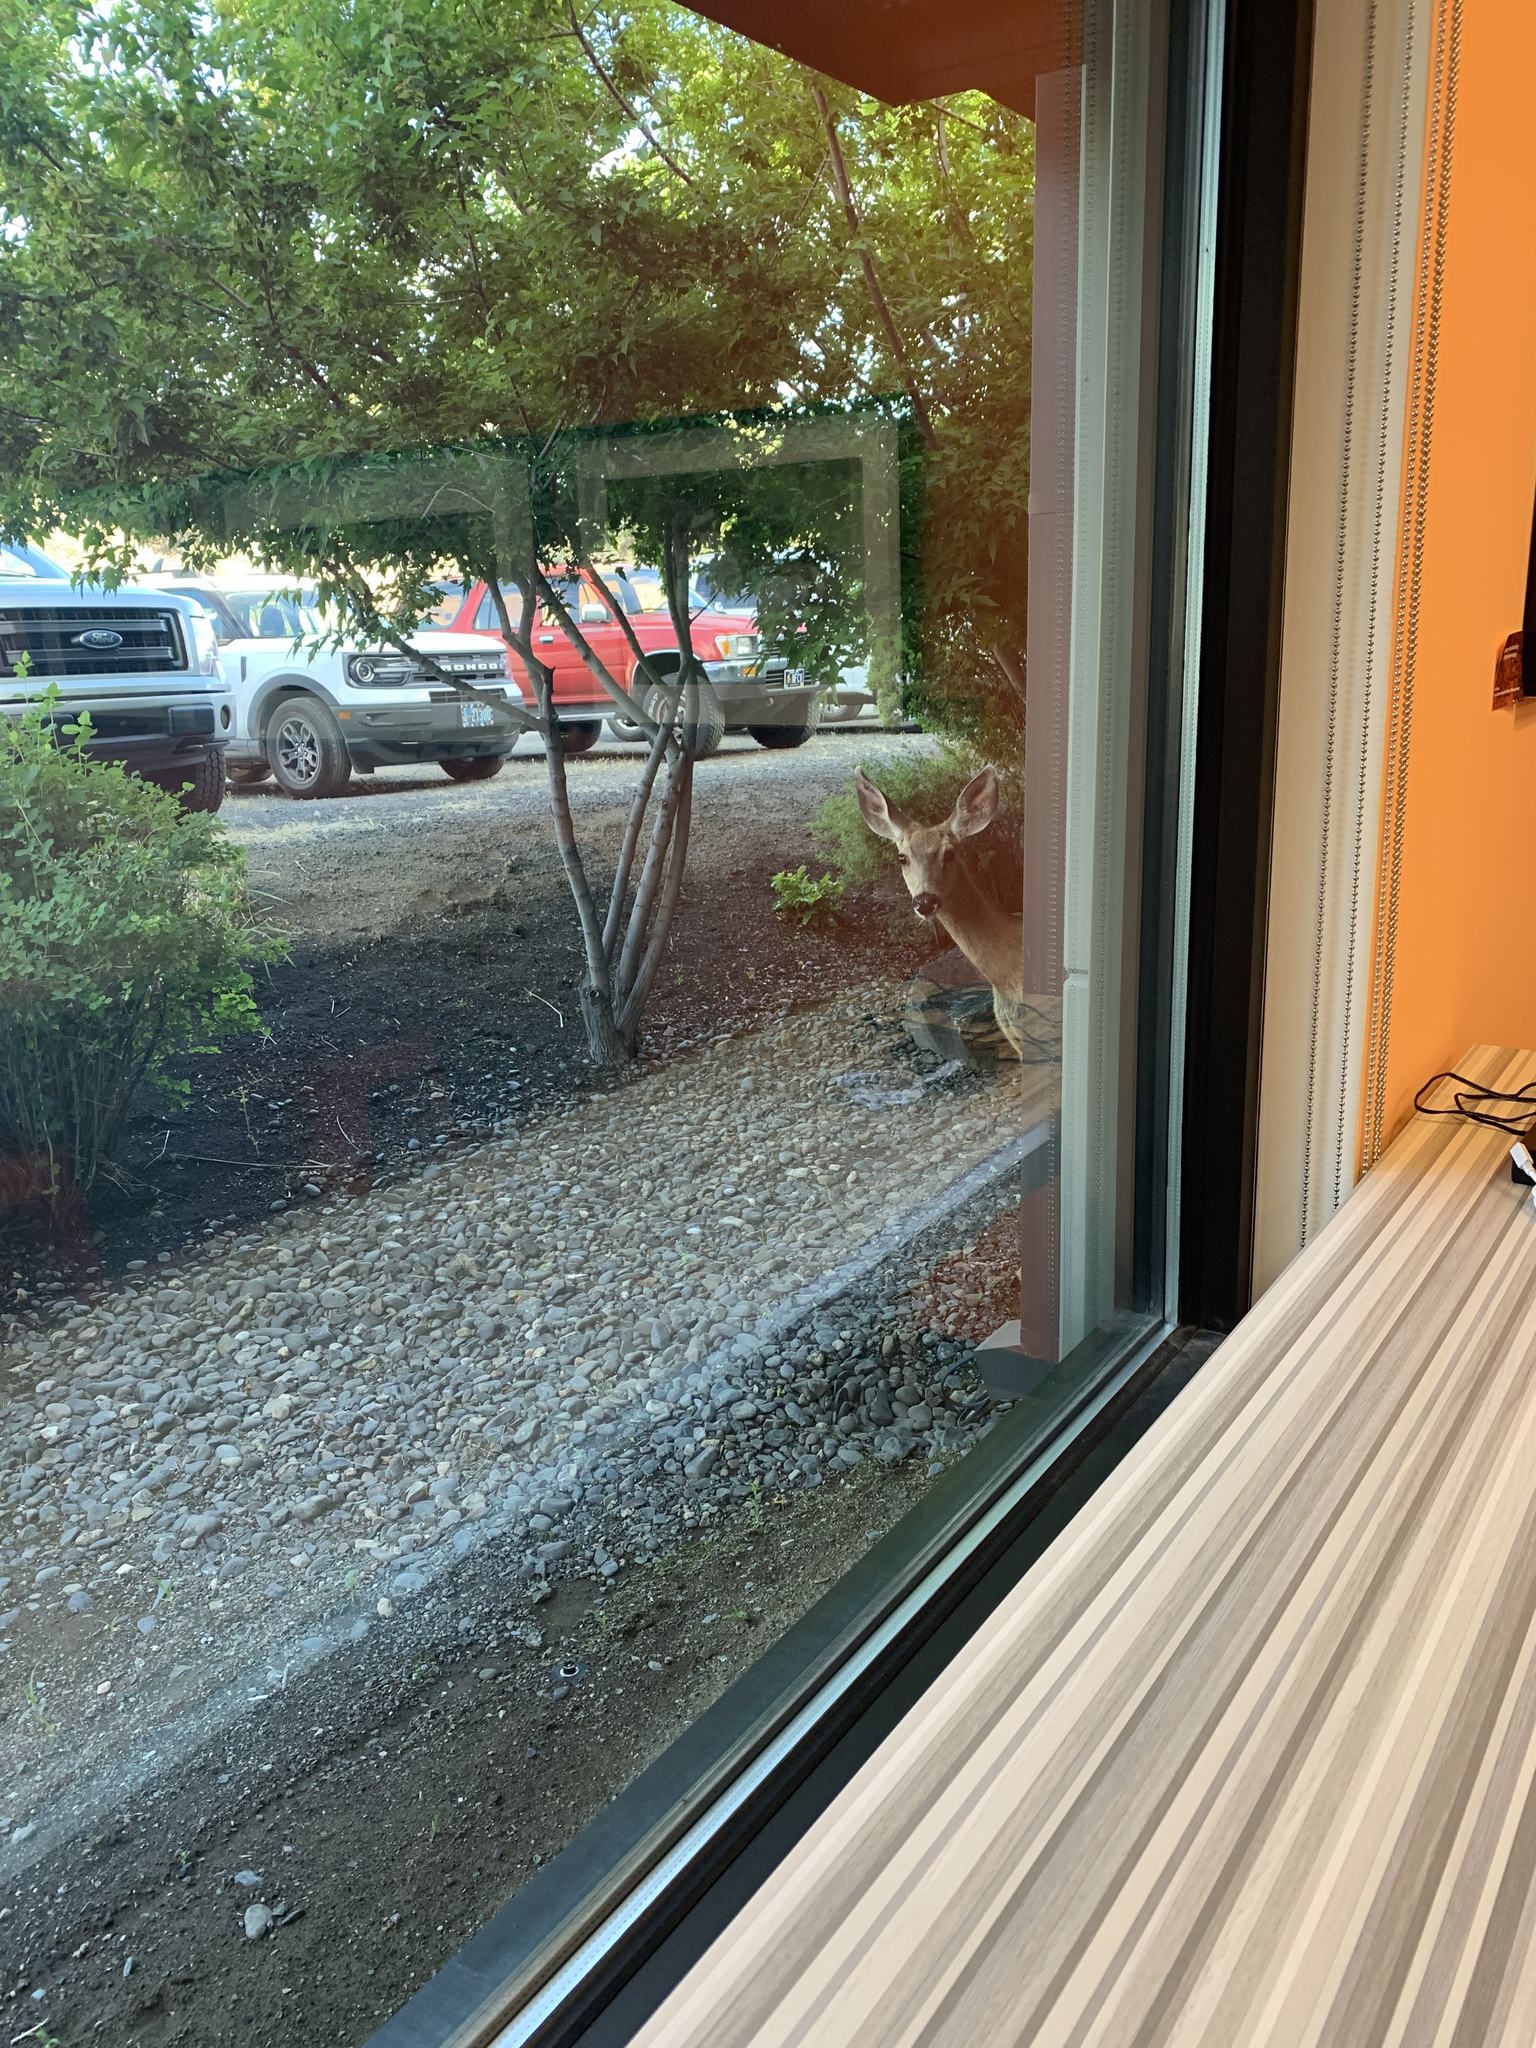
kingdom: Animalia
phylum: Chordata
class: Mammalia
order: Artiodactyla
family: Cervidae
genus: Odocoileus
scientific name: Odocoileus hemionus
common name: Mule deer
